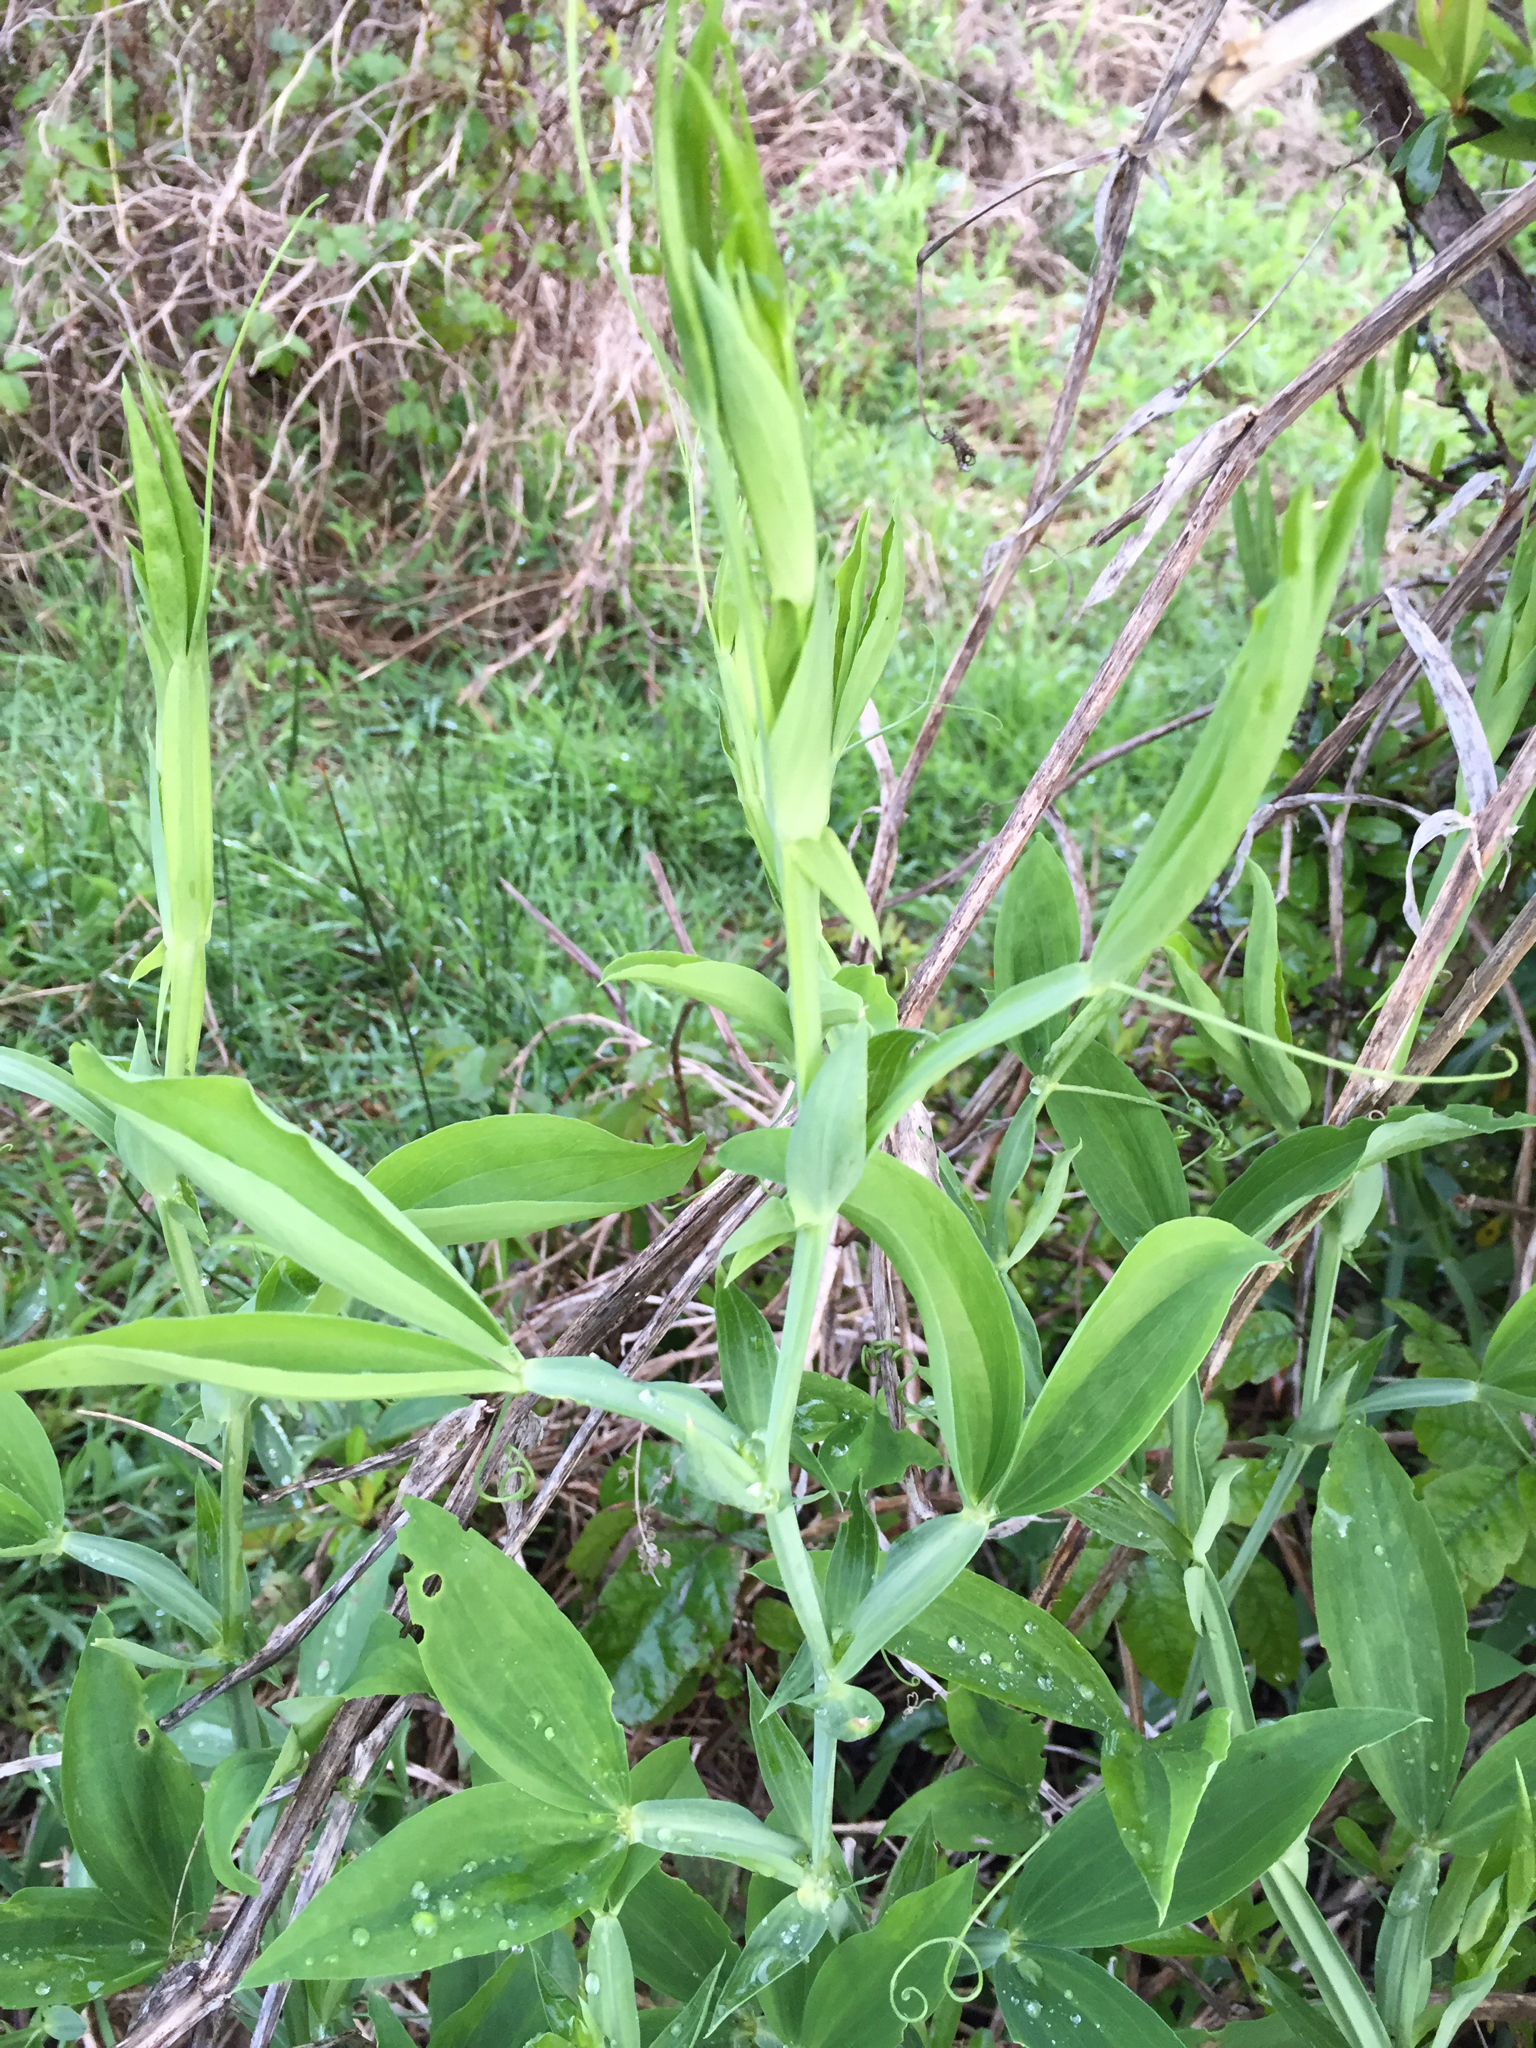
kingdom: Plantae
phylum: Tracheophyta
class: Magnoliopsida
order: Fabales
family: Fabaceae
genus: Lathyrus
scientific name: Lathyrus latifolius
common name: Perennial pea
